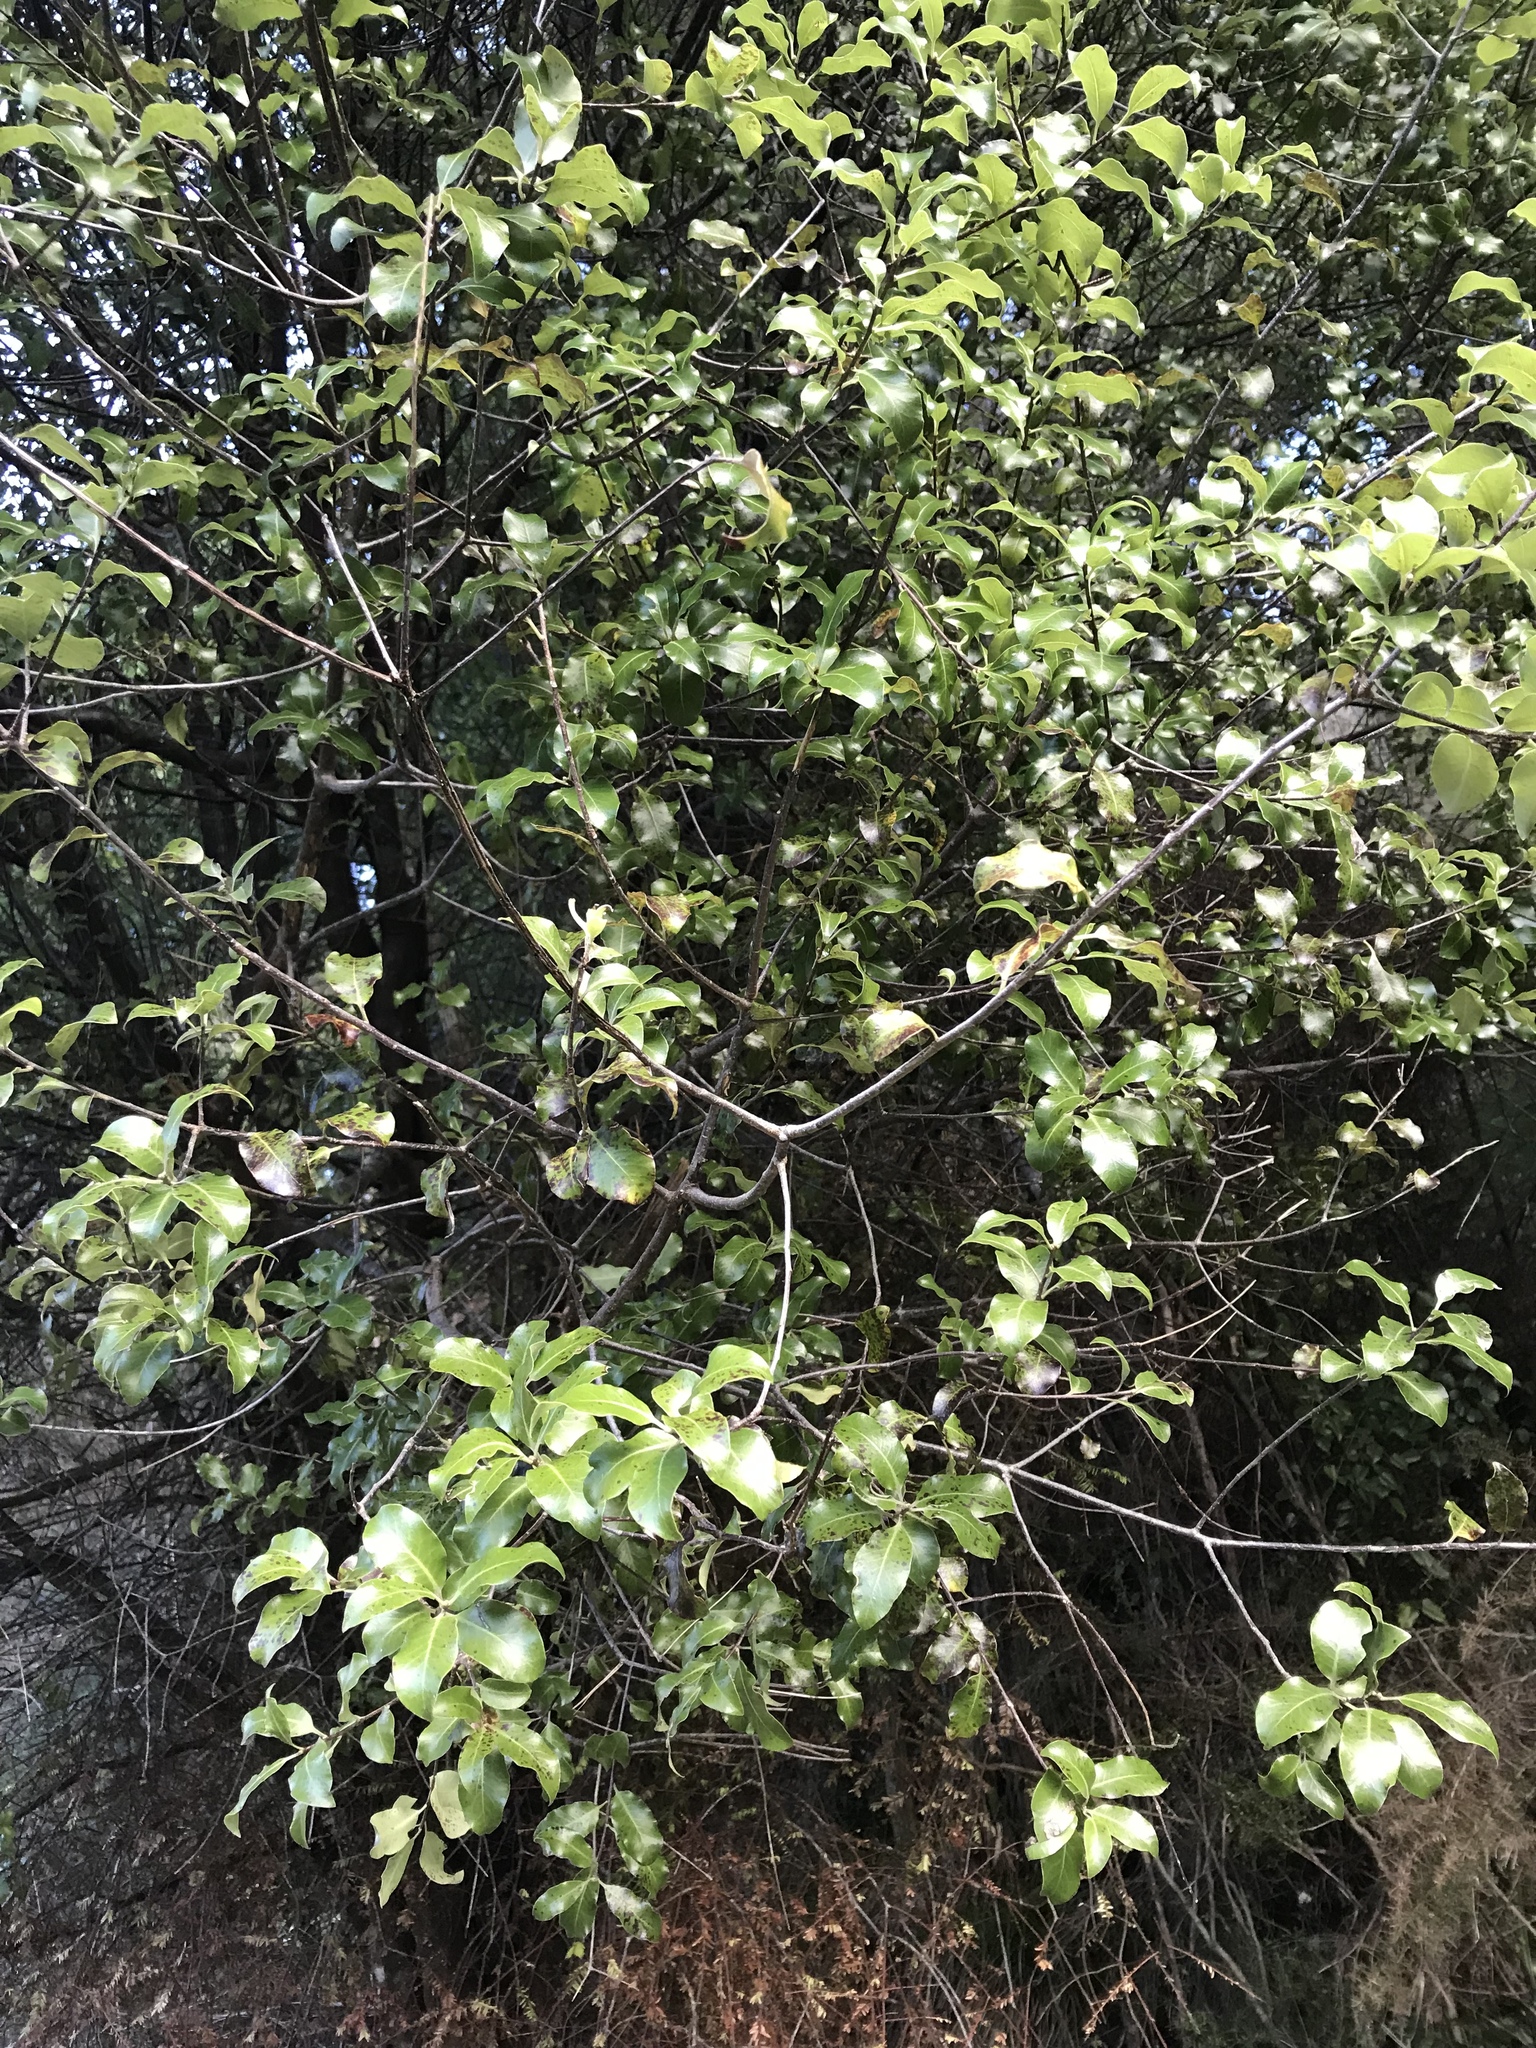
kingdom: Plantae
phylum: Tracheophyta
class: Magnoliopsida
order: Apiales
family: Pittosporaceae
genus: Pittosporum
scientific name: Pittosporum tenuifolium
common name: Kohuhu
